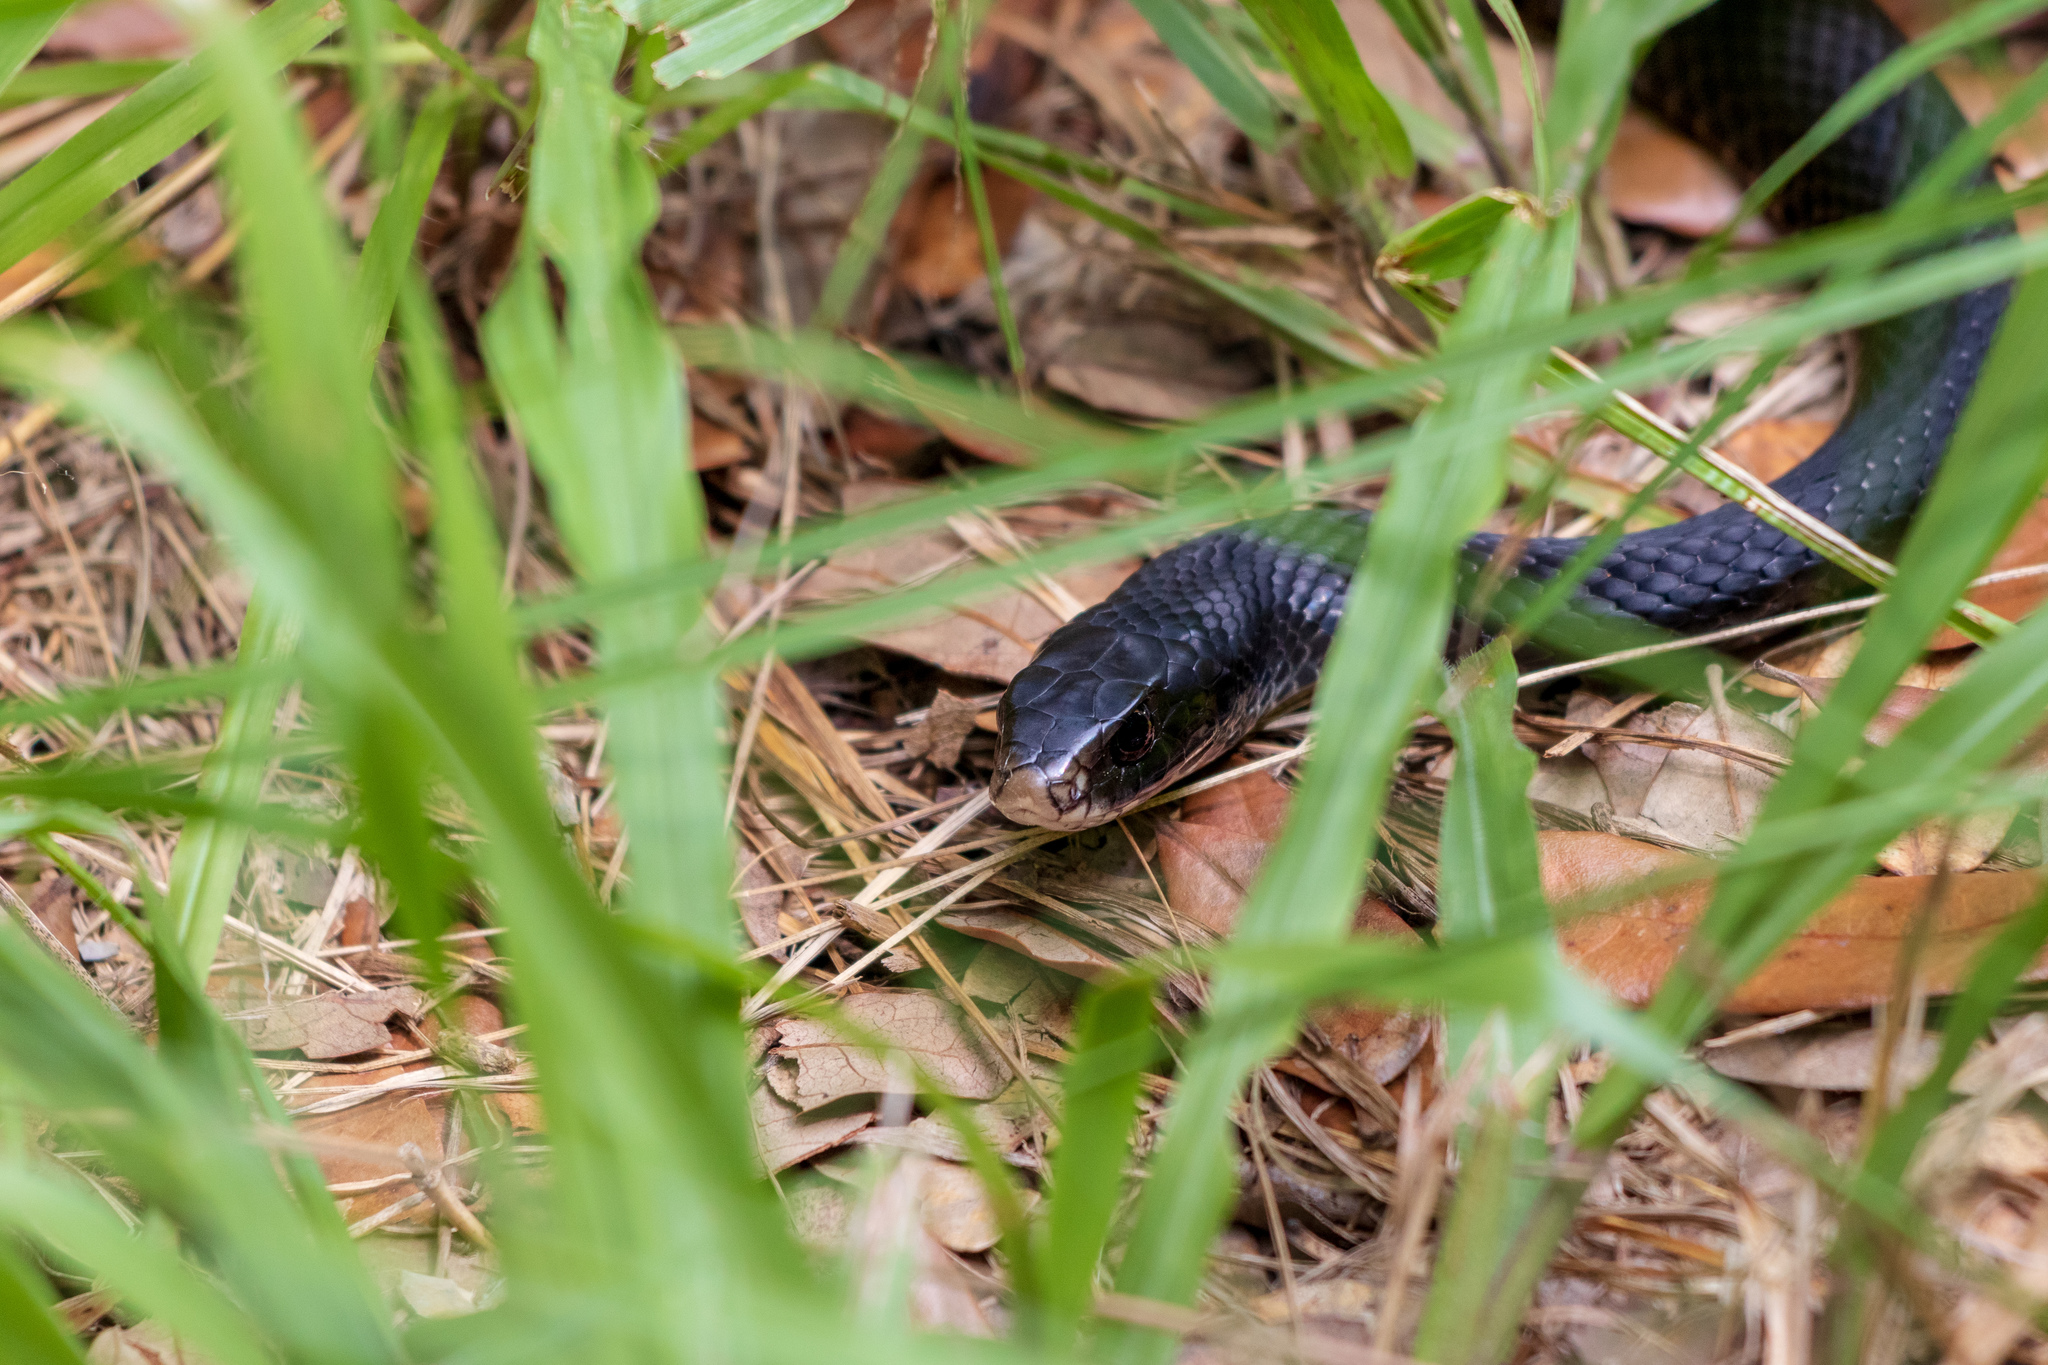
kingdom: Animalia
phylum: Chordata
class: Squamata
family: Colubridae
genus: Coluber
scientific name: Coluber constrictor
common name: Eastern racer
